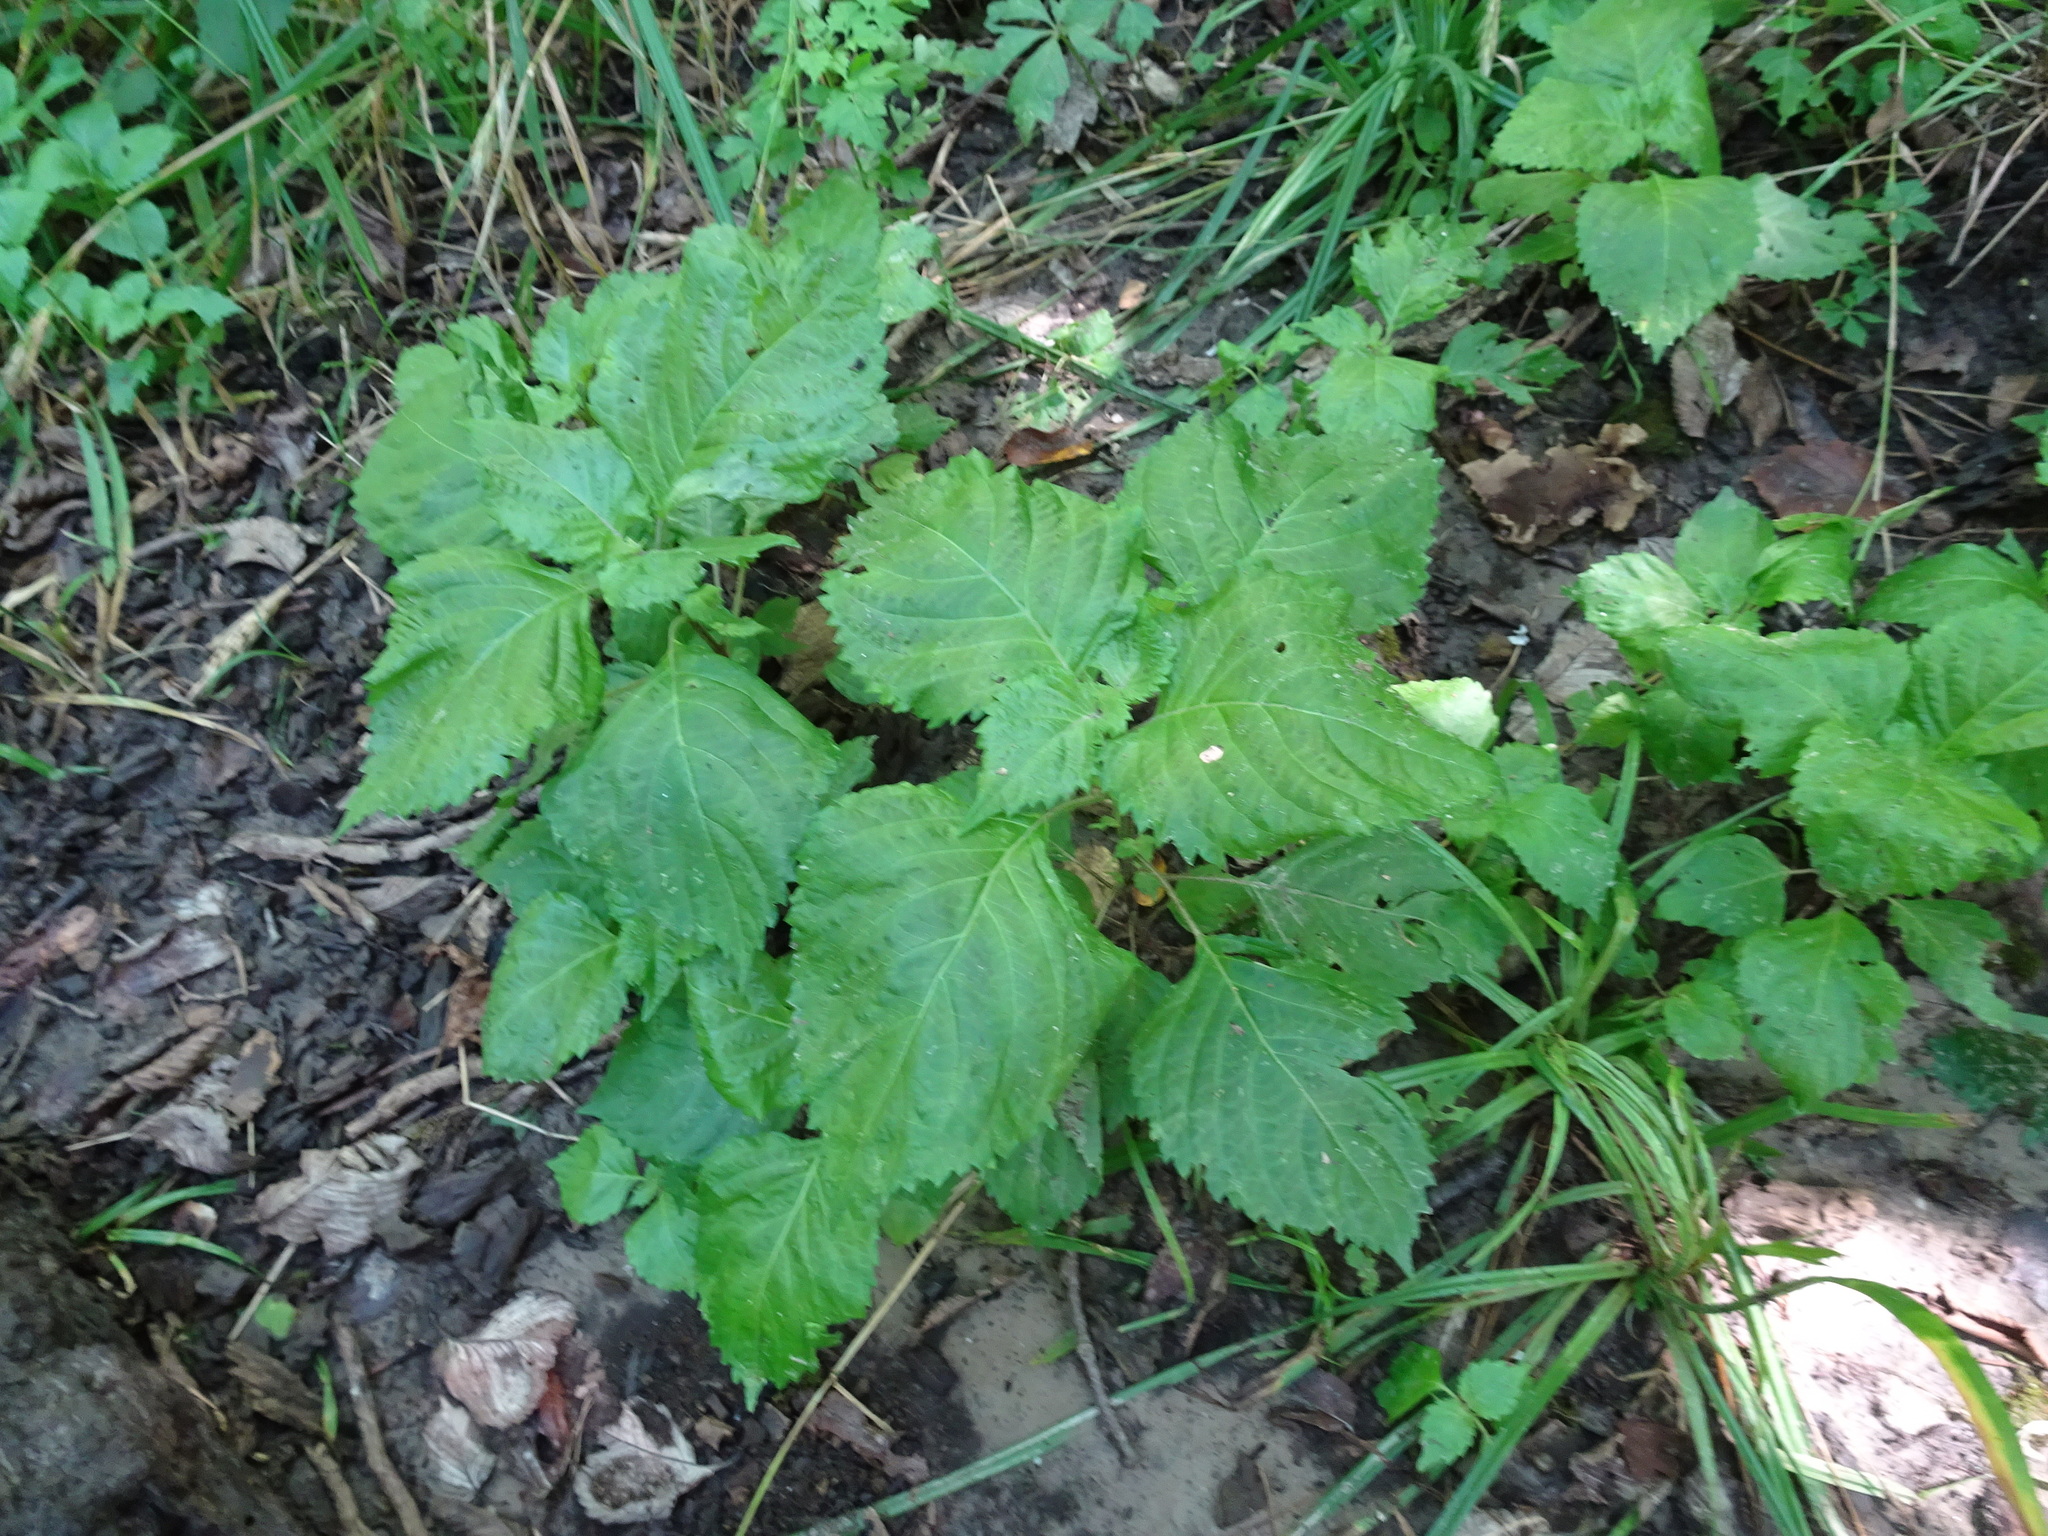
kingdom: Plantae
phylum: Tracheophyta
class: Magnoliopsida
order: Lamiales
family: Lamiaceae
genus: Perilla
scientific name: Perilla frutescens
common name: Perilla
